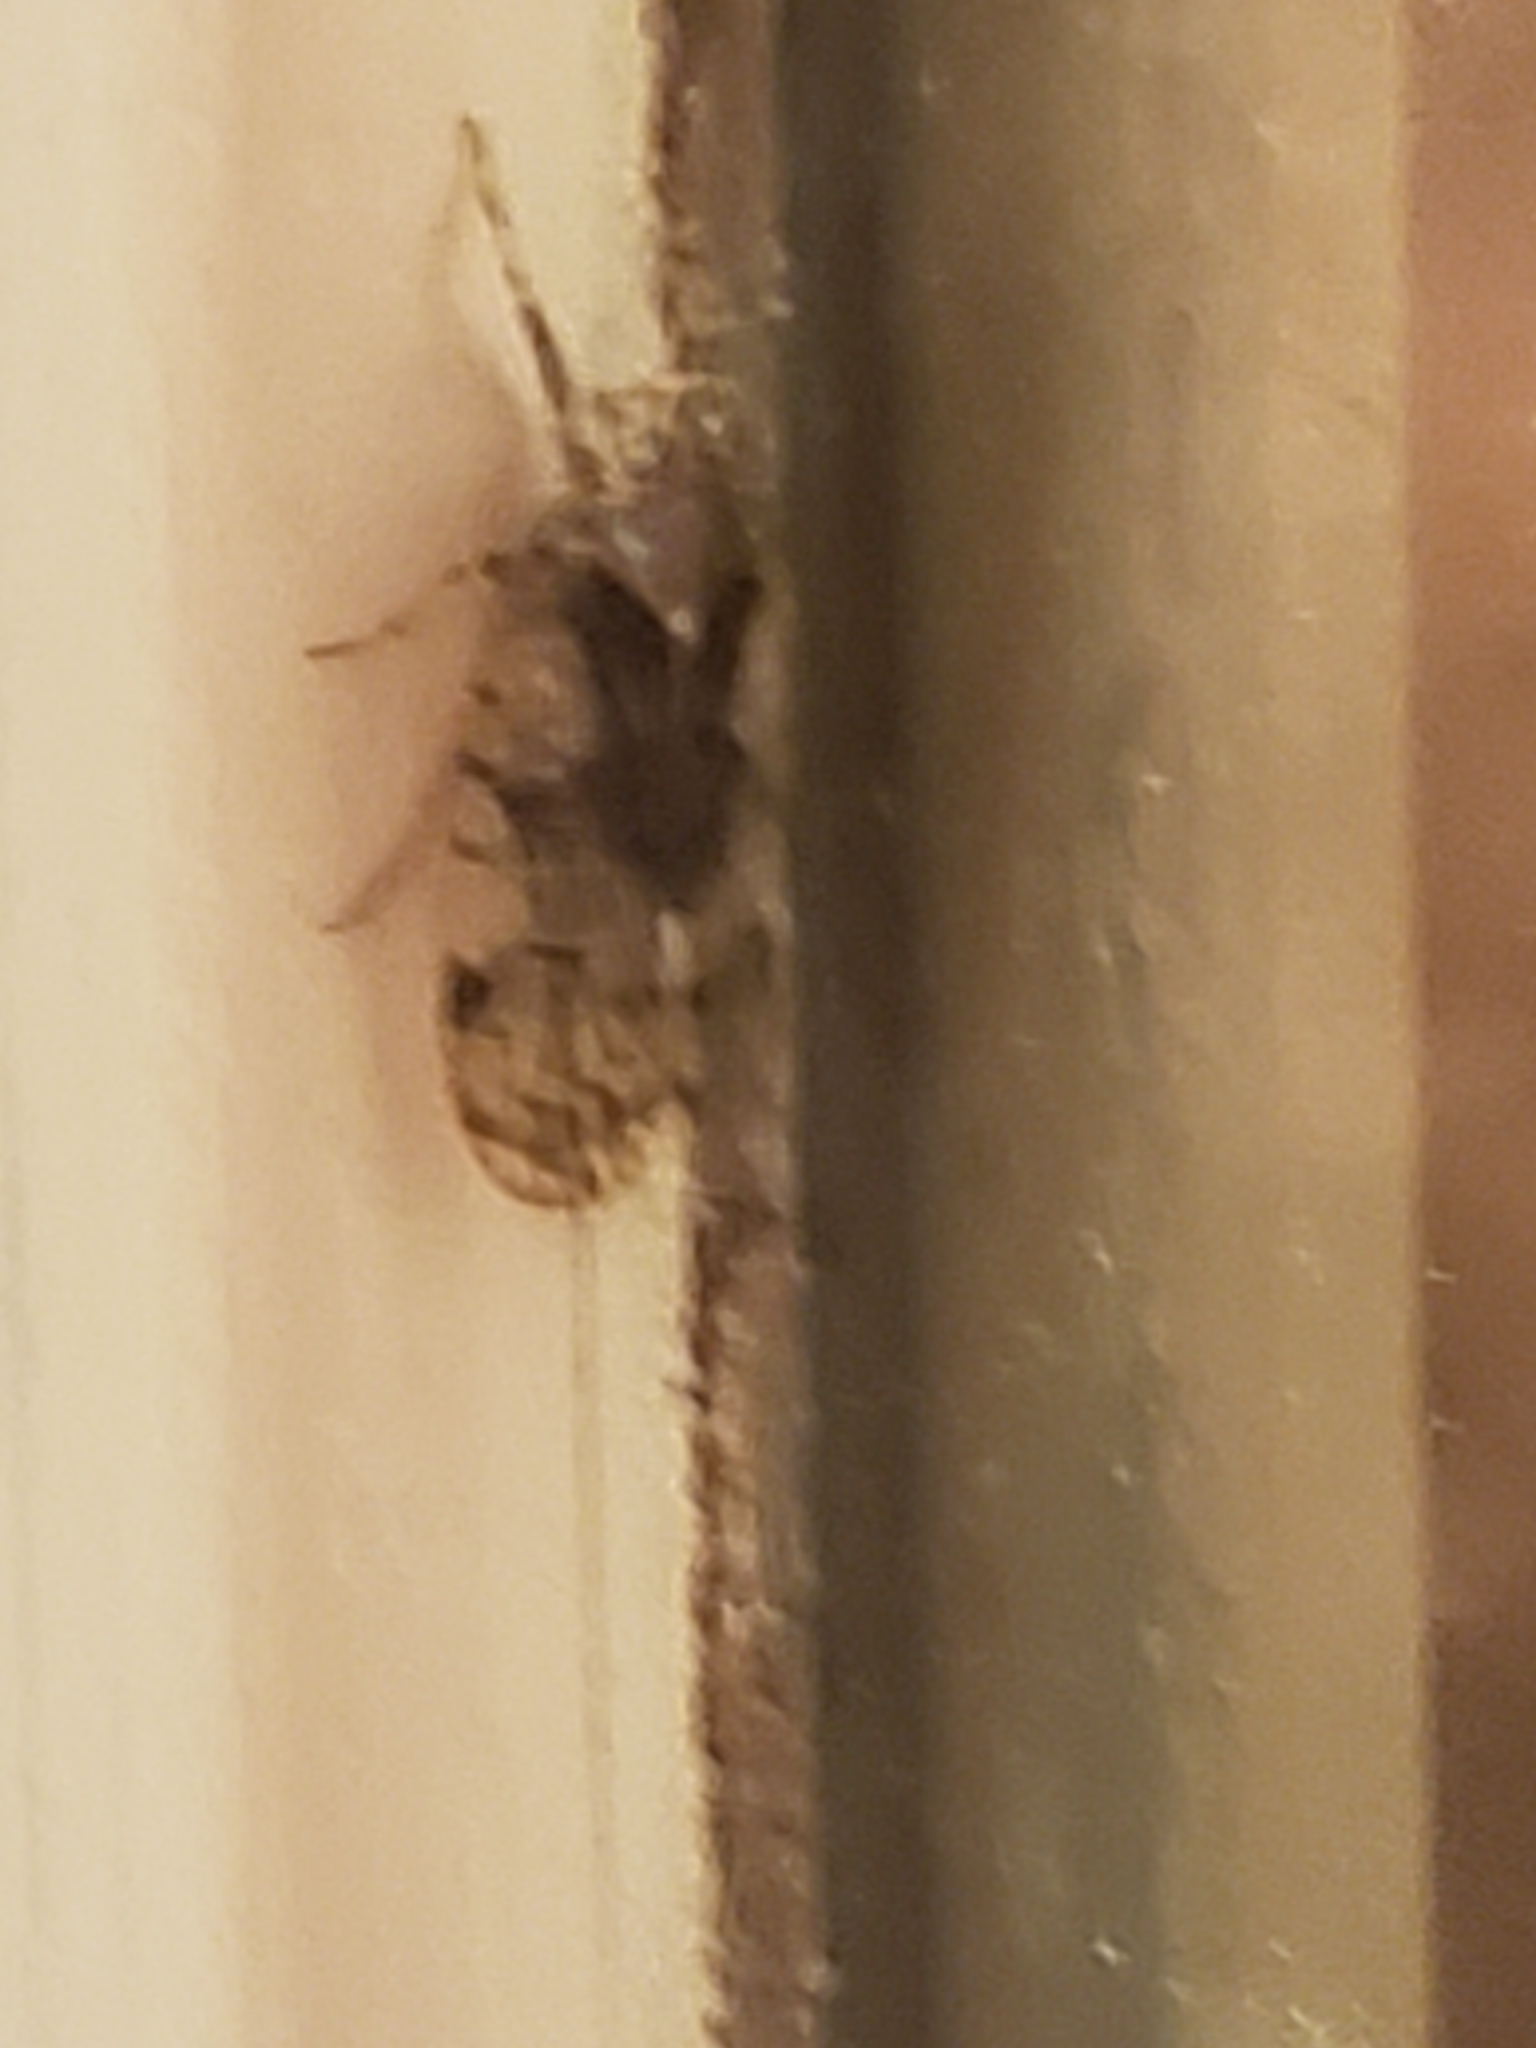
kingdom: Animalia
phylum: Arthropoda
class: Insecta
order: Hemiptera
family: Cixiidae
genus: Melanoliarus
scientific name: Melanoliarus placitus
